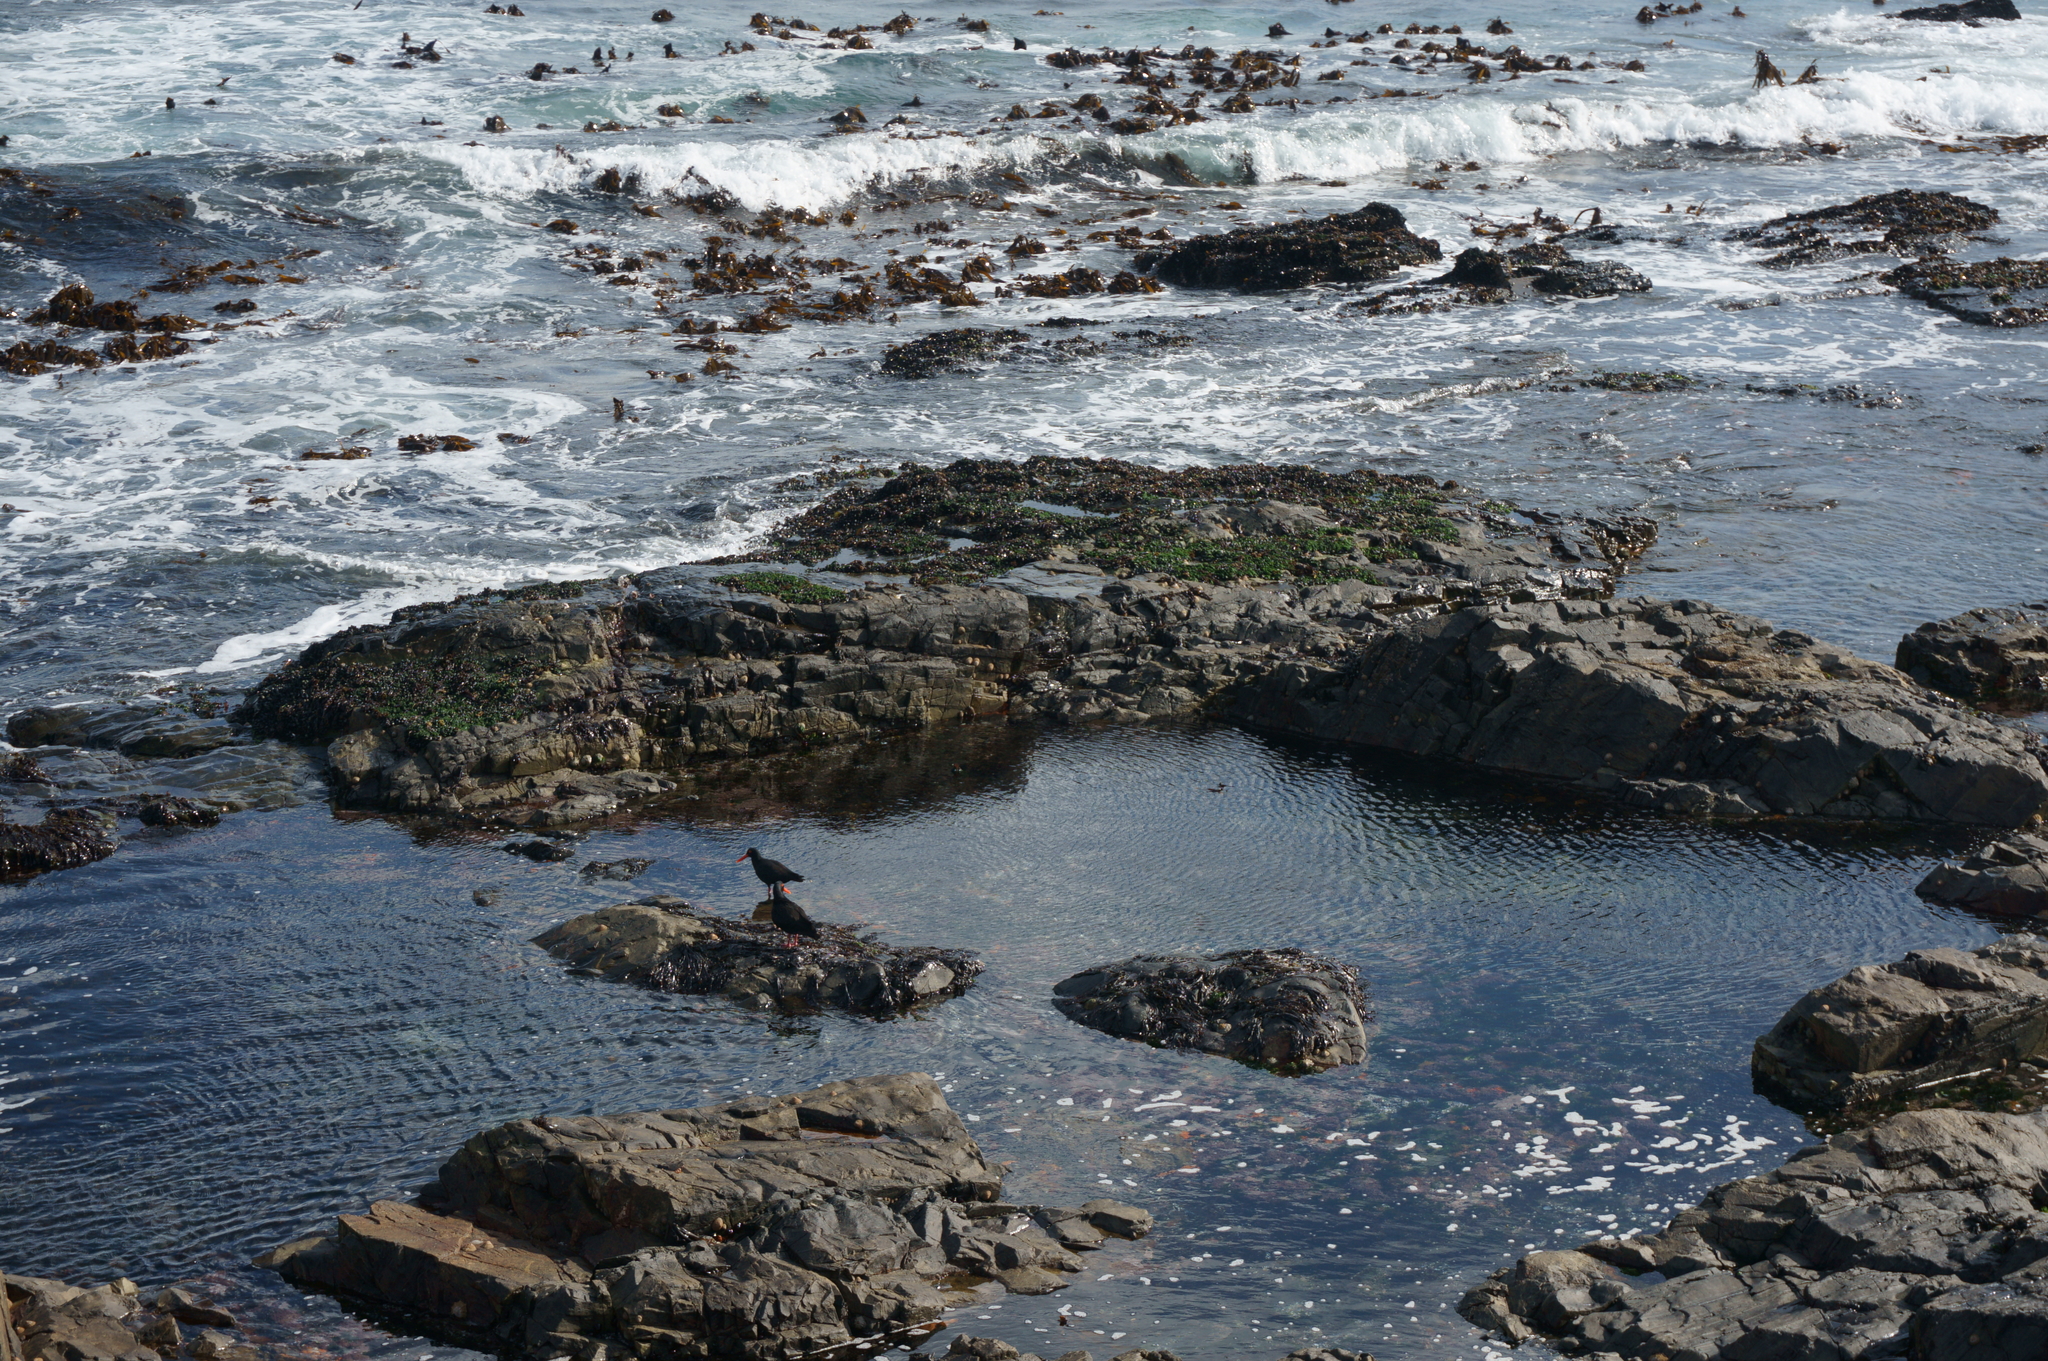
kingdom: Animalia
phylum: Chordata
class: Aves
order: Charadriiformes
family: Haematopodidae
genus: Haematopus
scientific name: Haematopus moquini
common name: African oystercatcher
